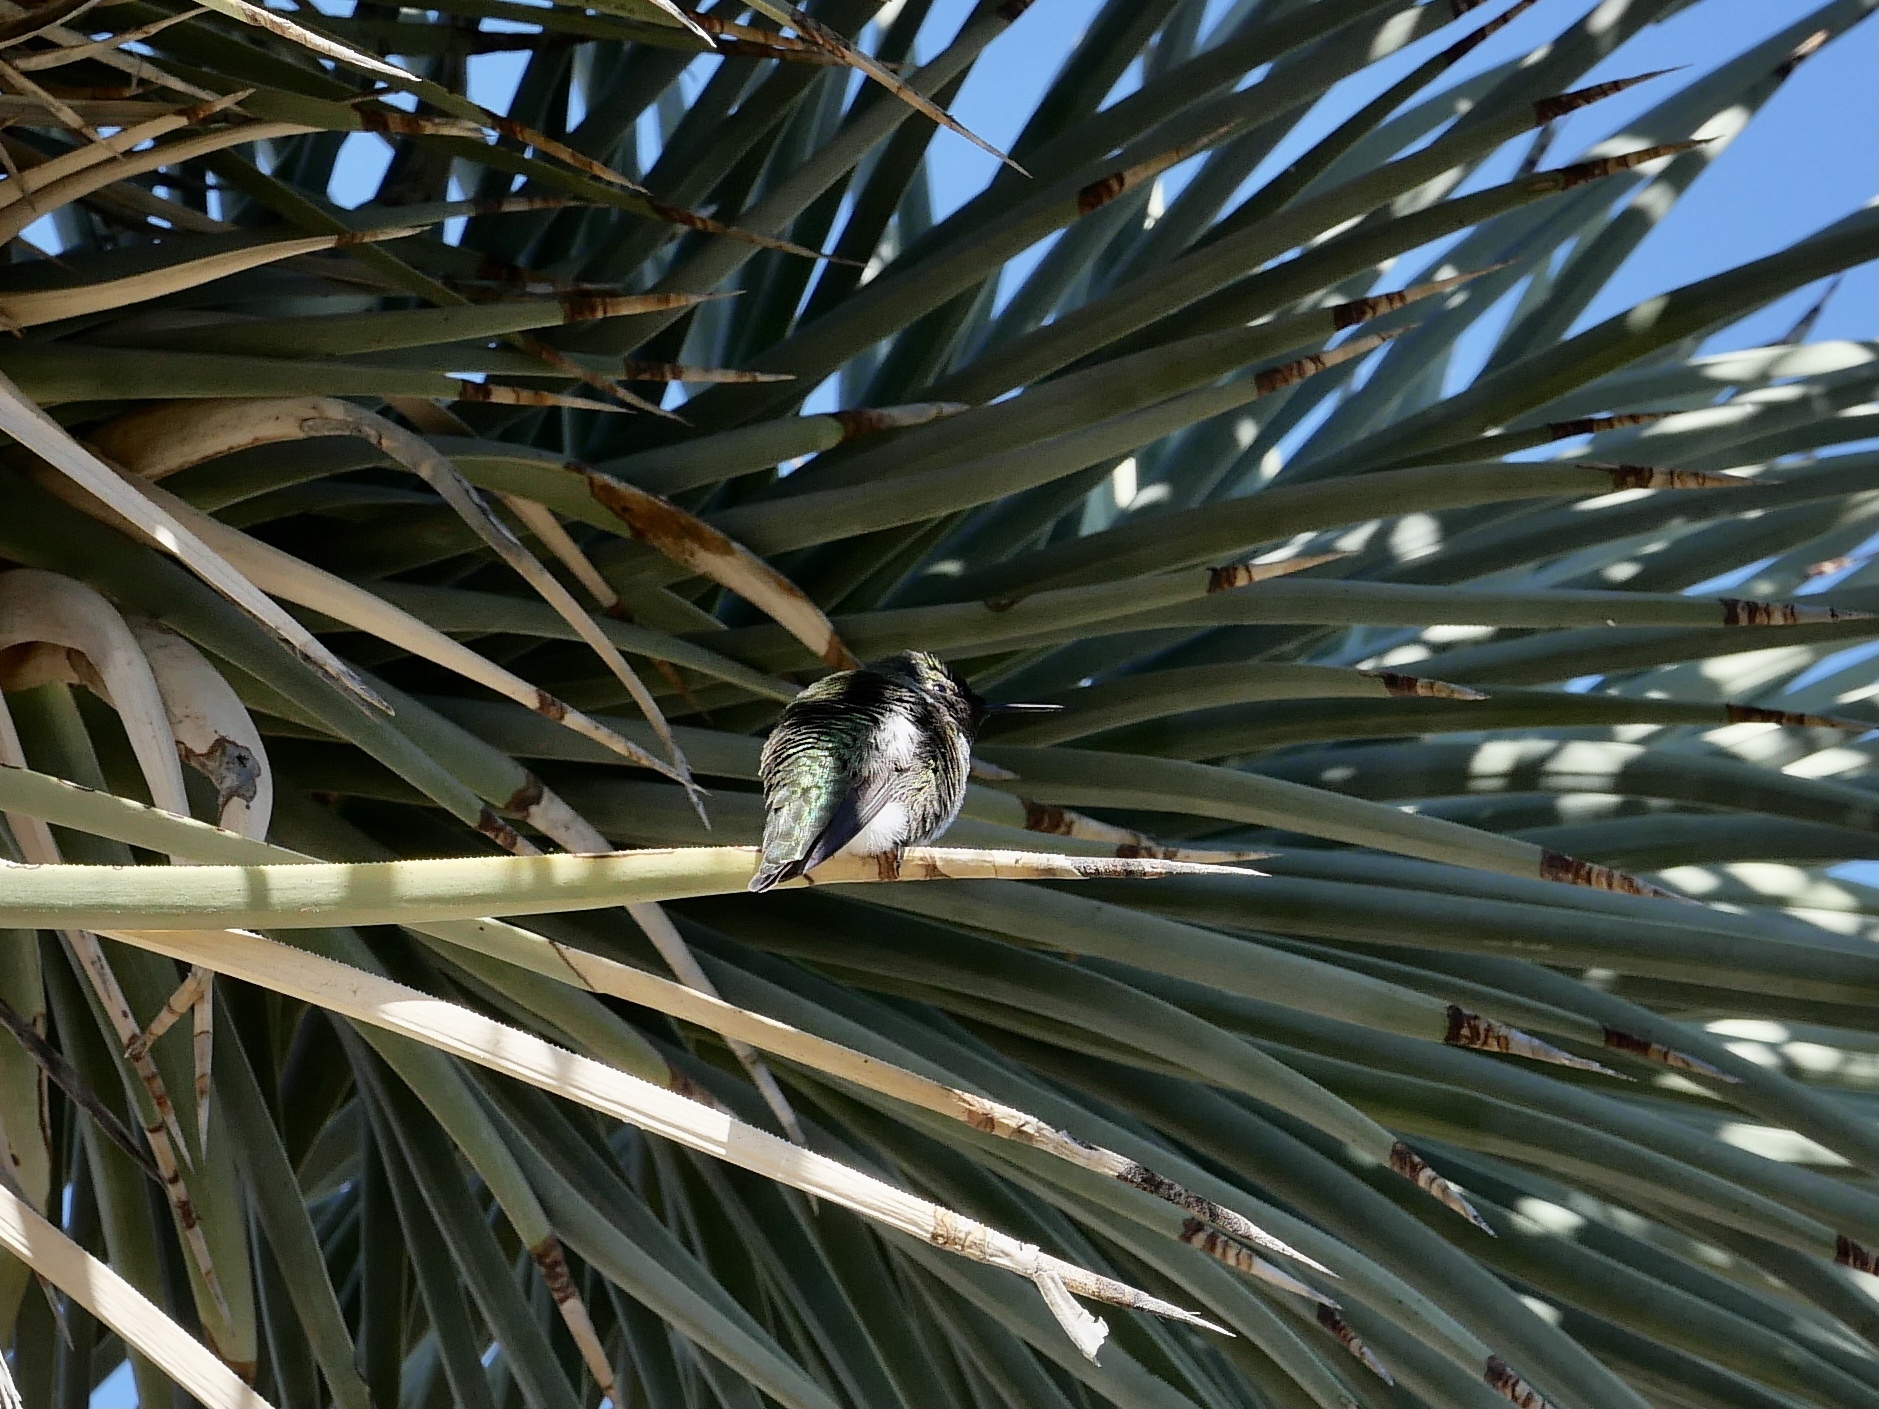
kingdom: Animalia
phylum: Chordata
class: Aves
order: Apodiformes
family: Trochilidae
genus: Calypte
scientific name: Calypte anna
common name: Anna's hummingbird
